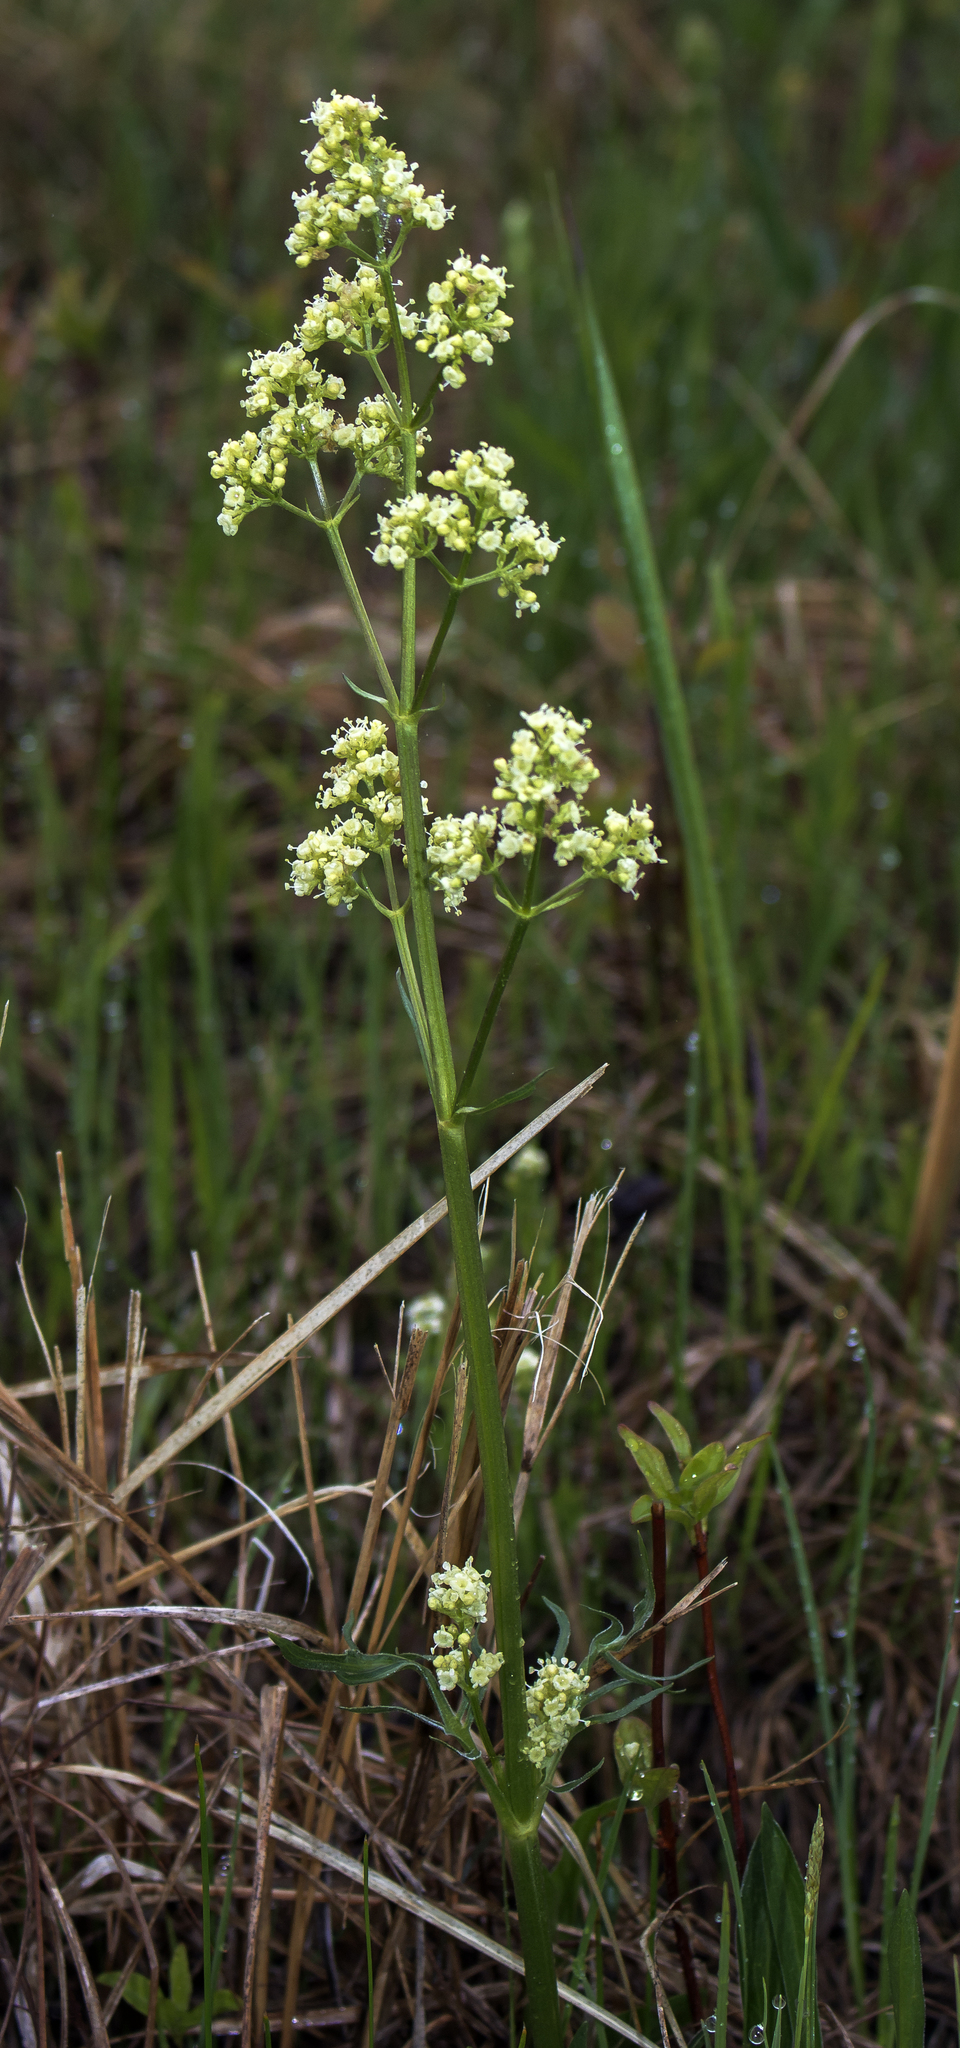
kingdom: Plantae
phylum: Tracheophyta
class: Magnoliopsida
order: Dipsacales
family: Caprifoliaceae
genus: Valeriana
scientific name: Valeriana edulis
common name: Taproot valerian
